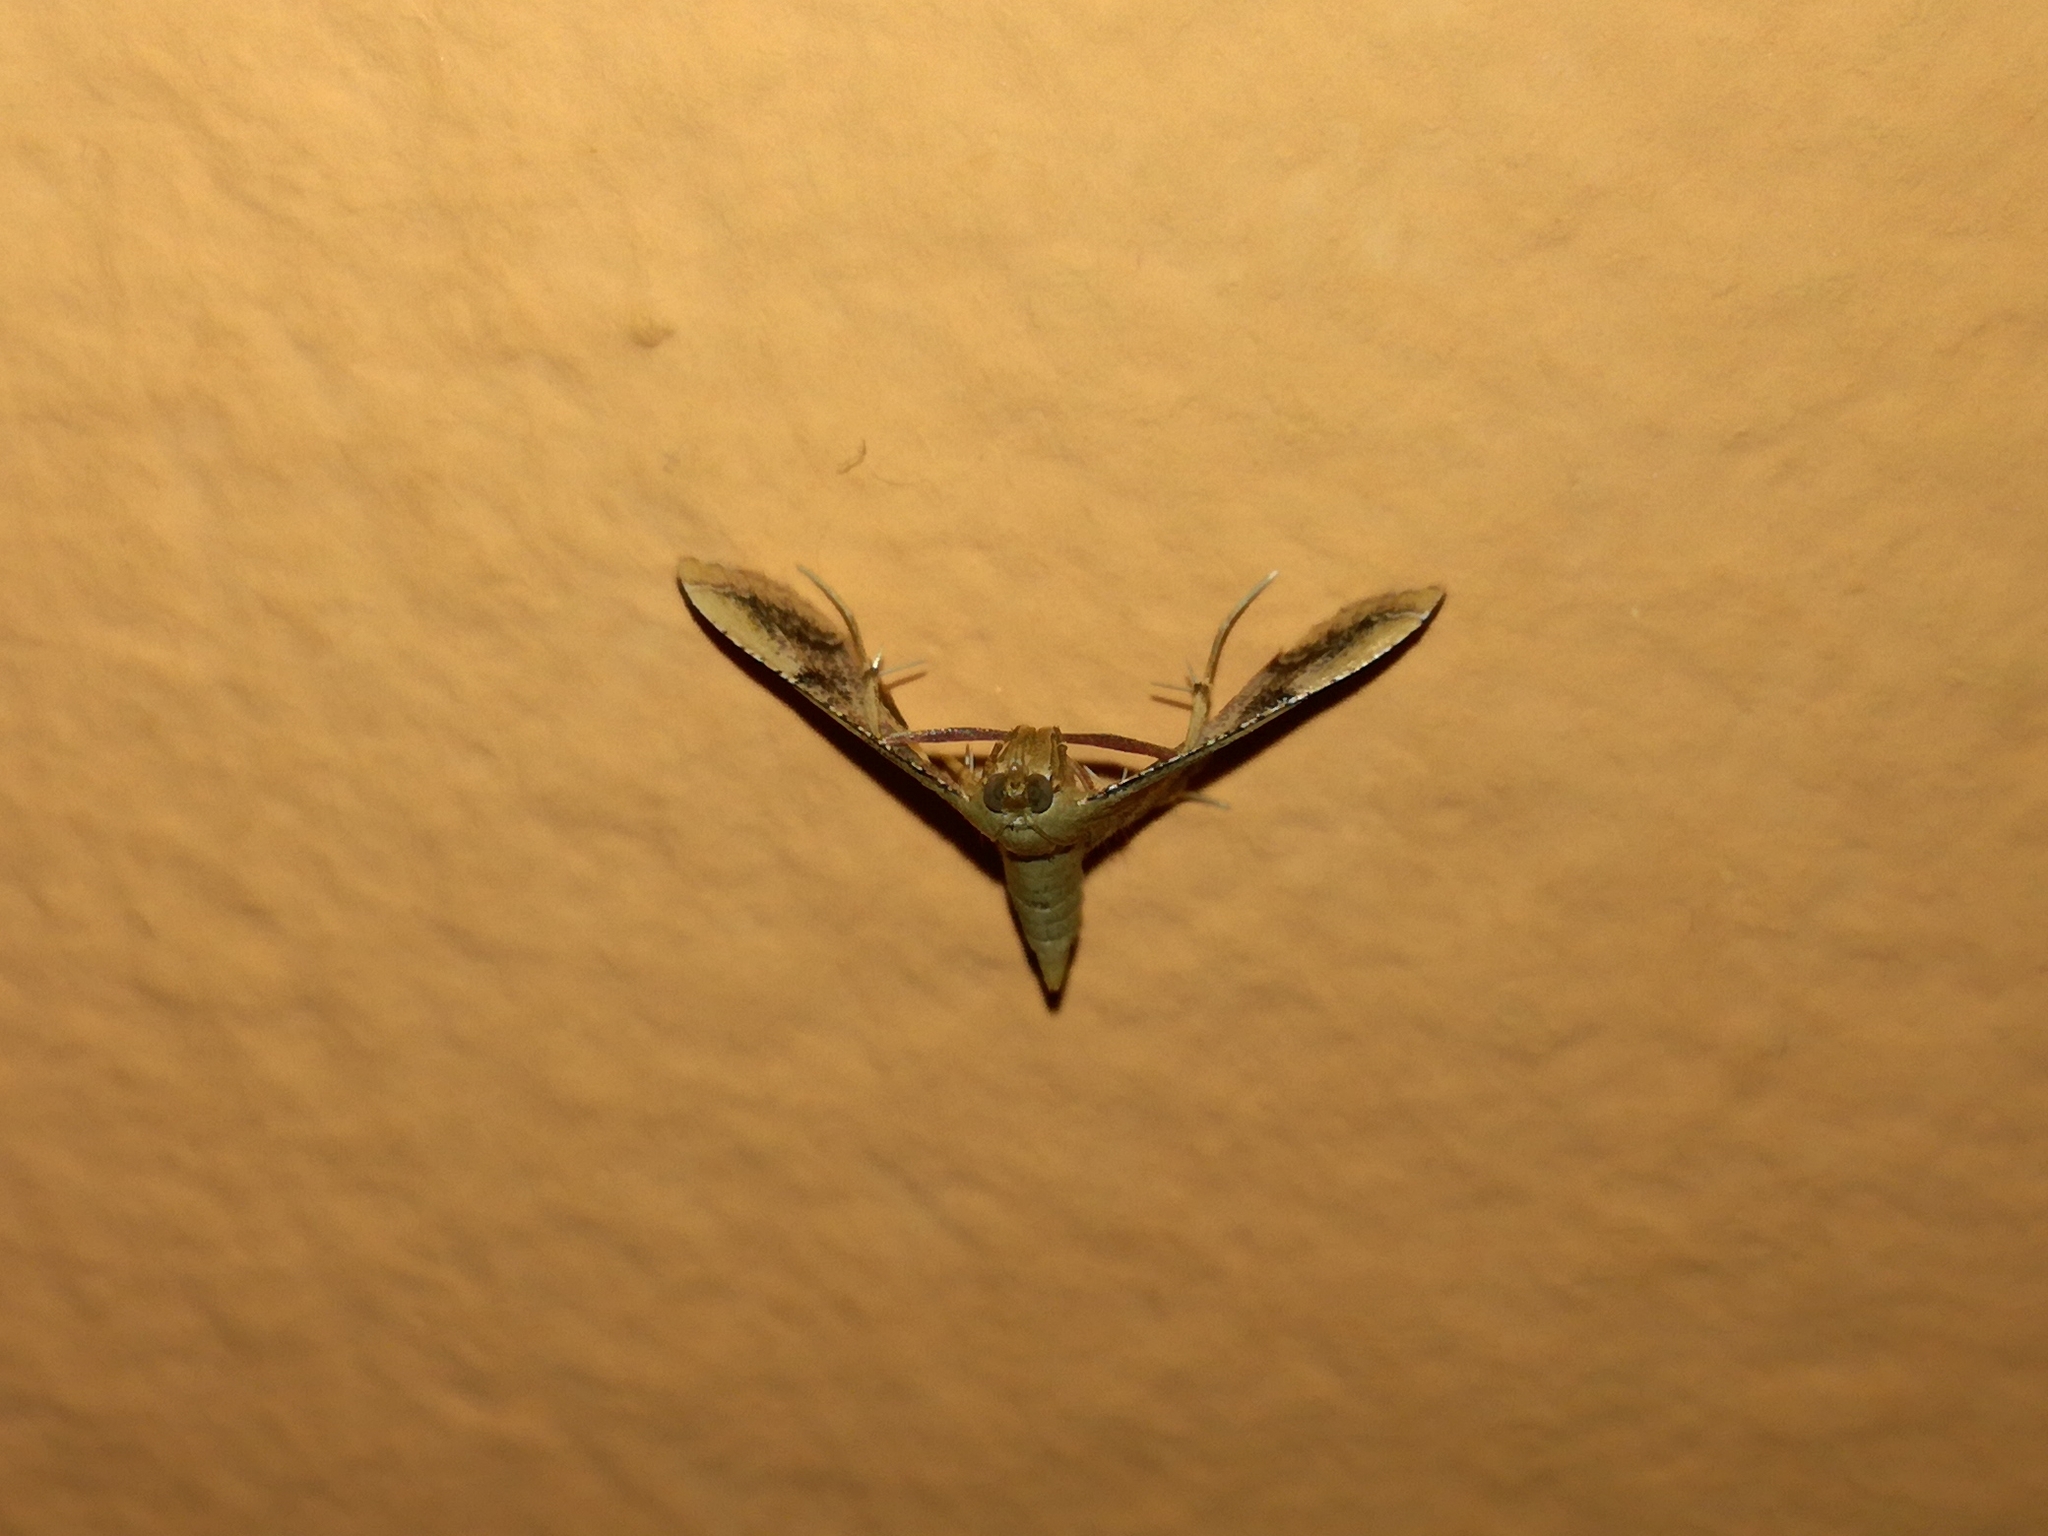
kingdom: Animalia
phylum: Arthropoda
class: Insecta
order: Lepidoptera
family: Pyralidae
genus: Endotricha
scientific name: Endotricha flammealis
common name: Rosy tabby
